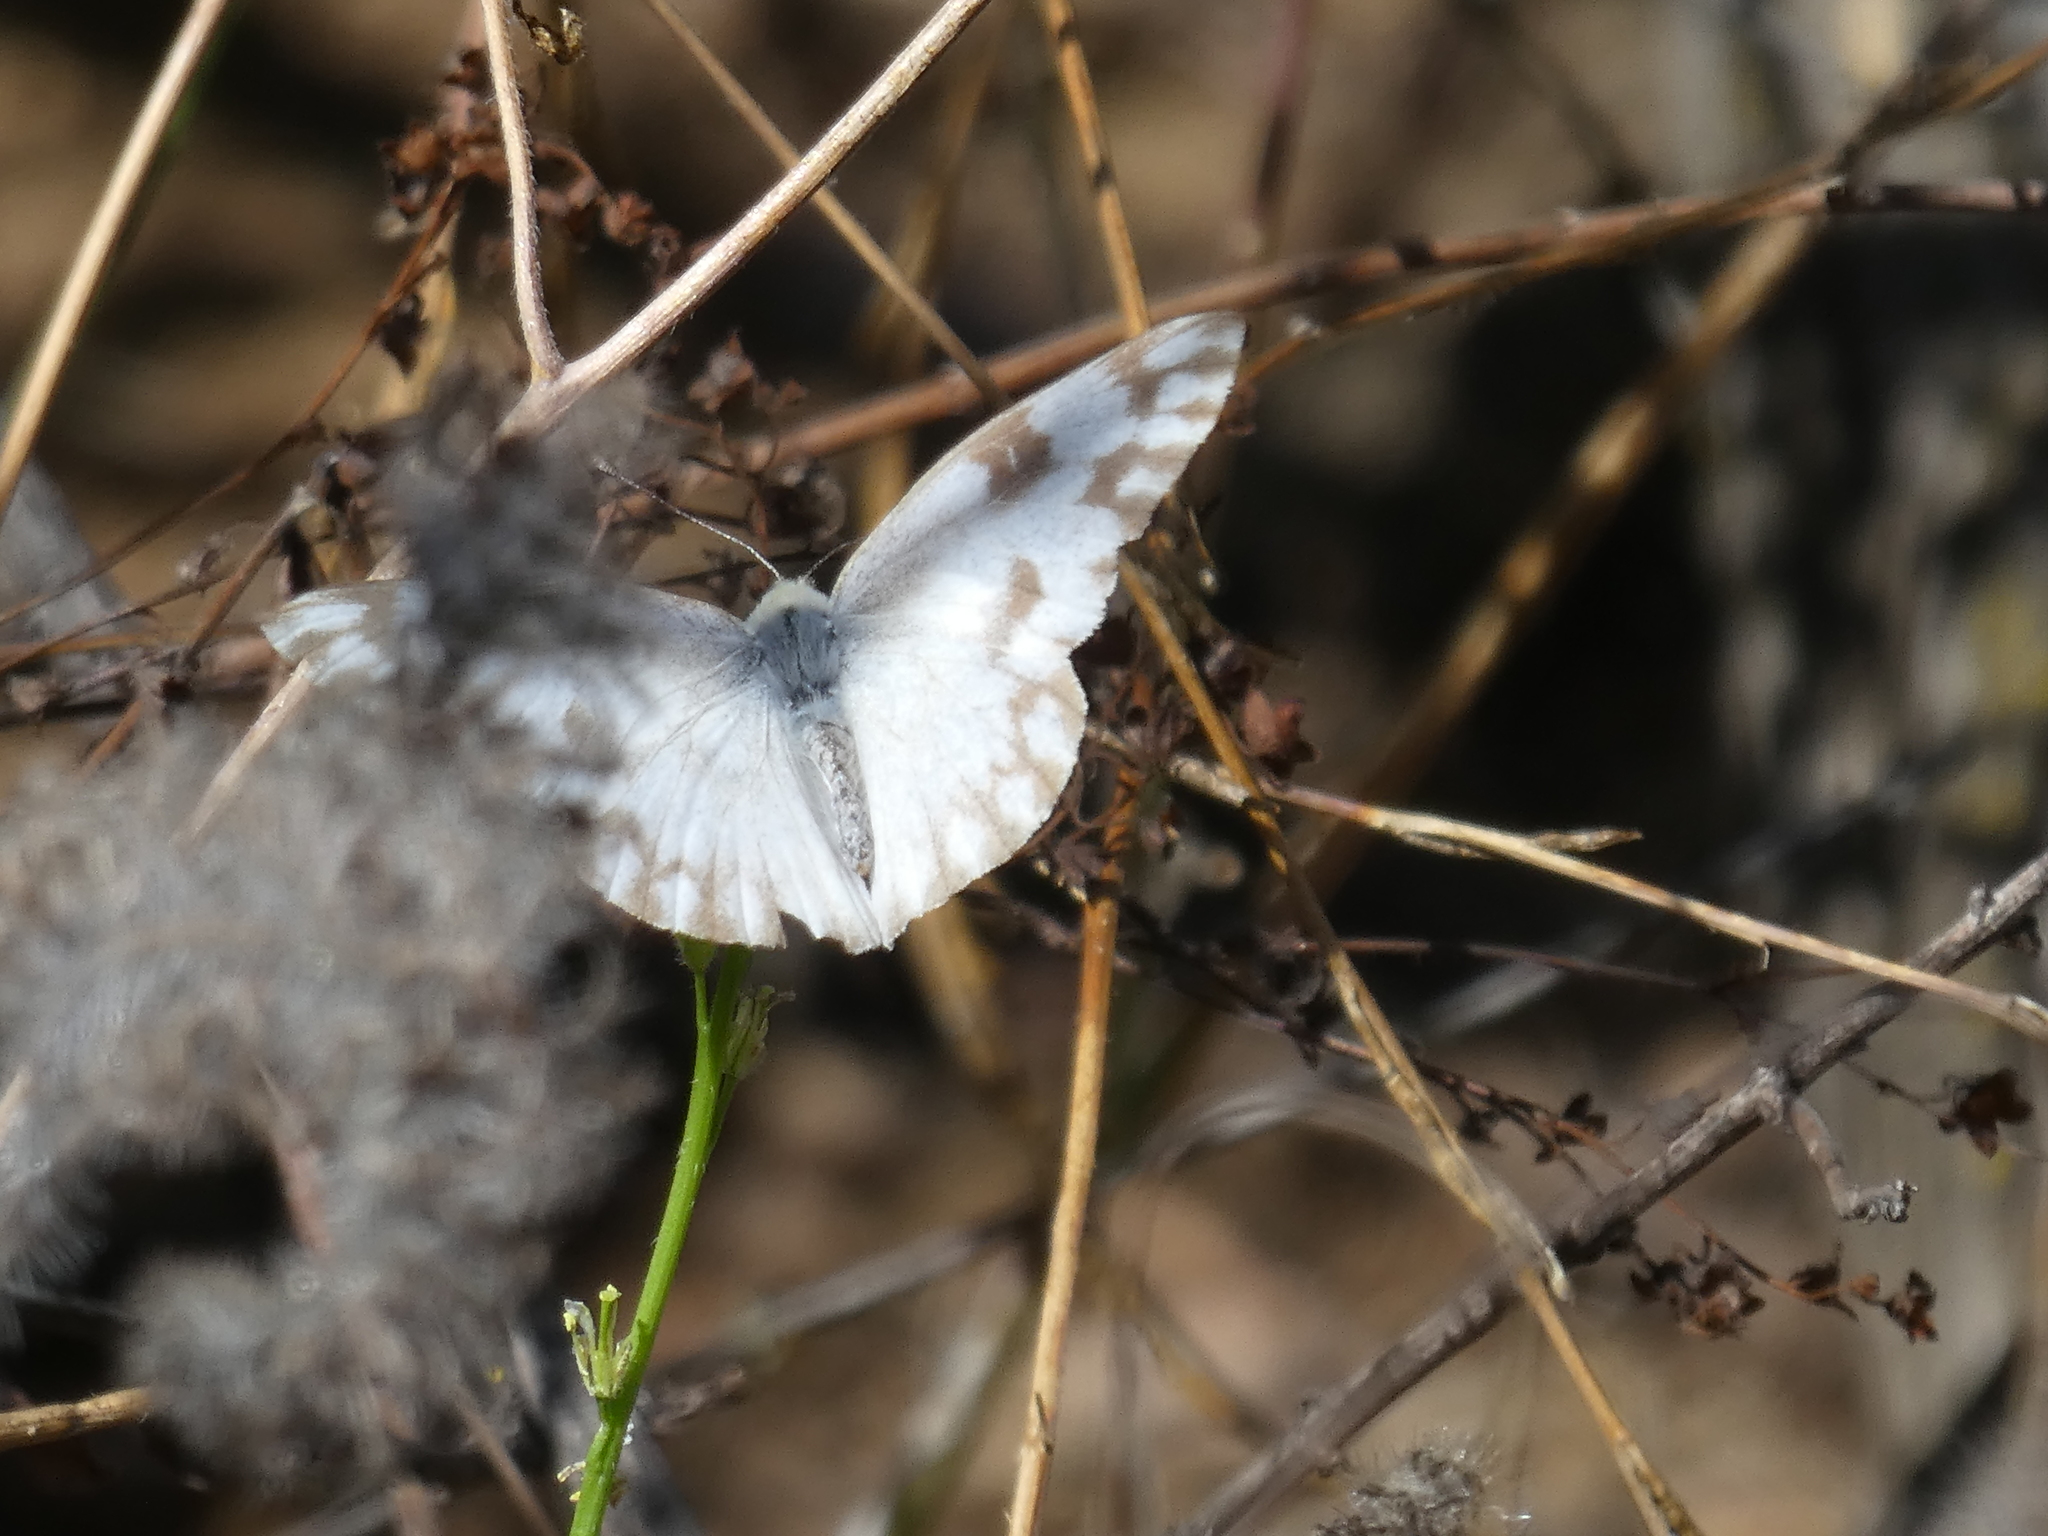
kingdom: Animalia
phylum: Arthropoda
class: Insecta
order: Lepidoptera
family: Pieridae
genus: Pontia
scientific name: Pontia protodice
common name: Checkered white
